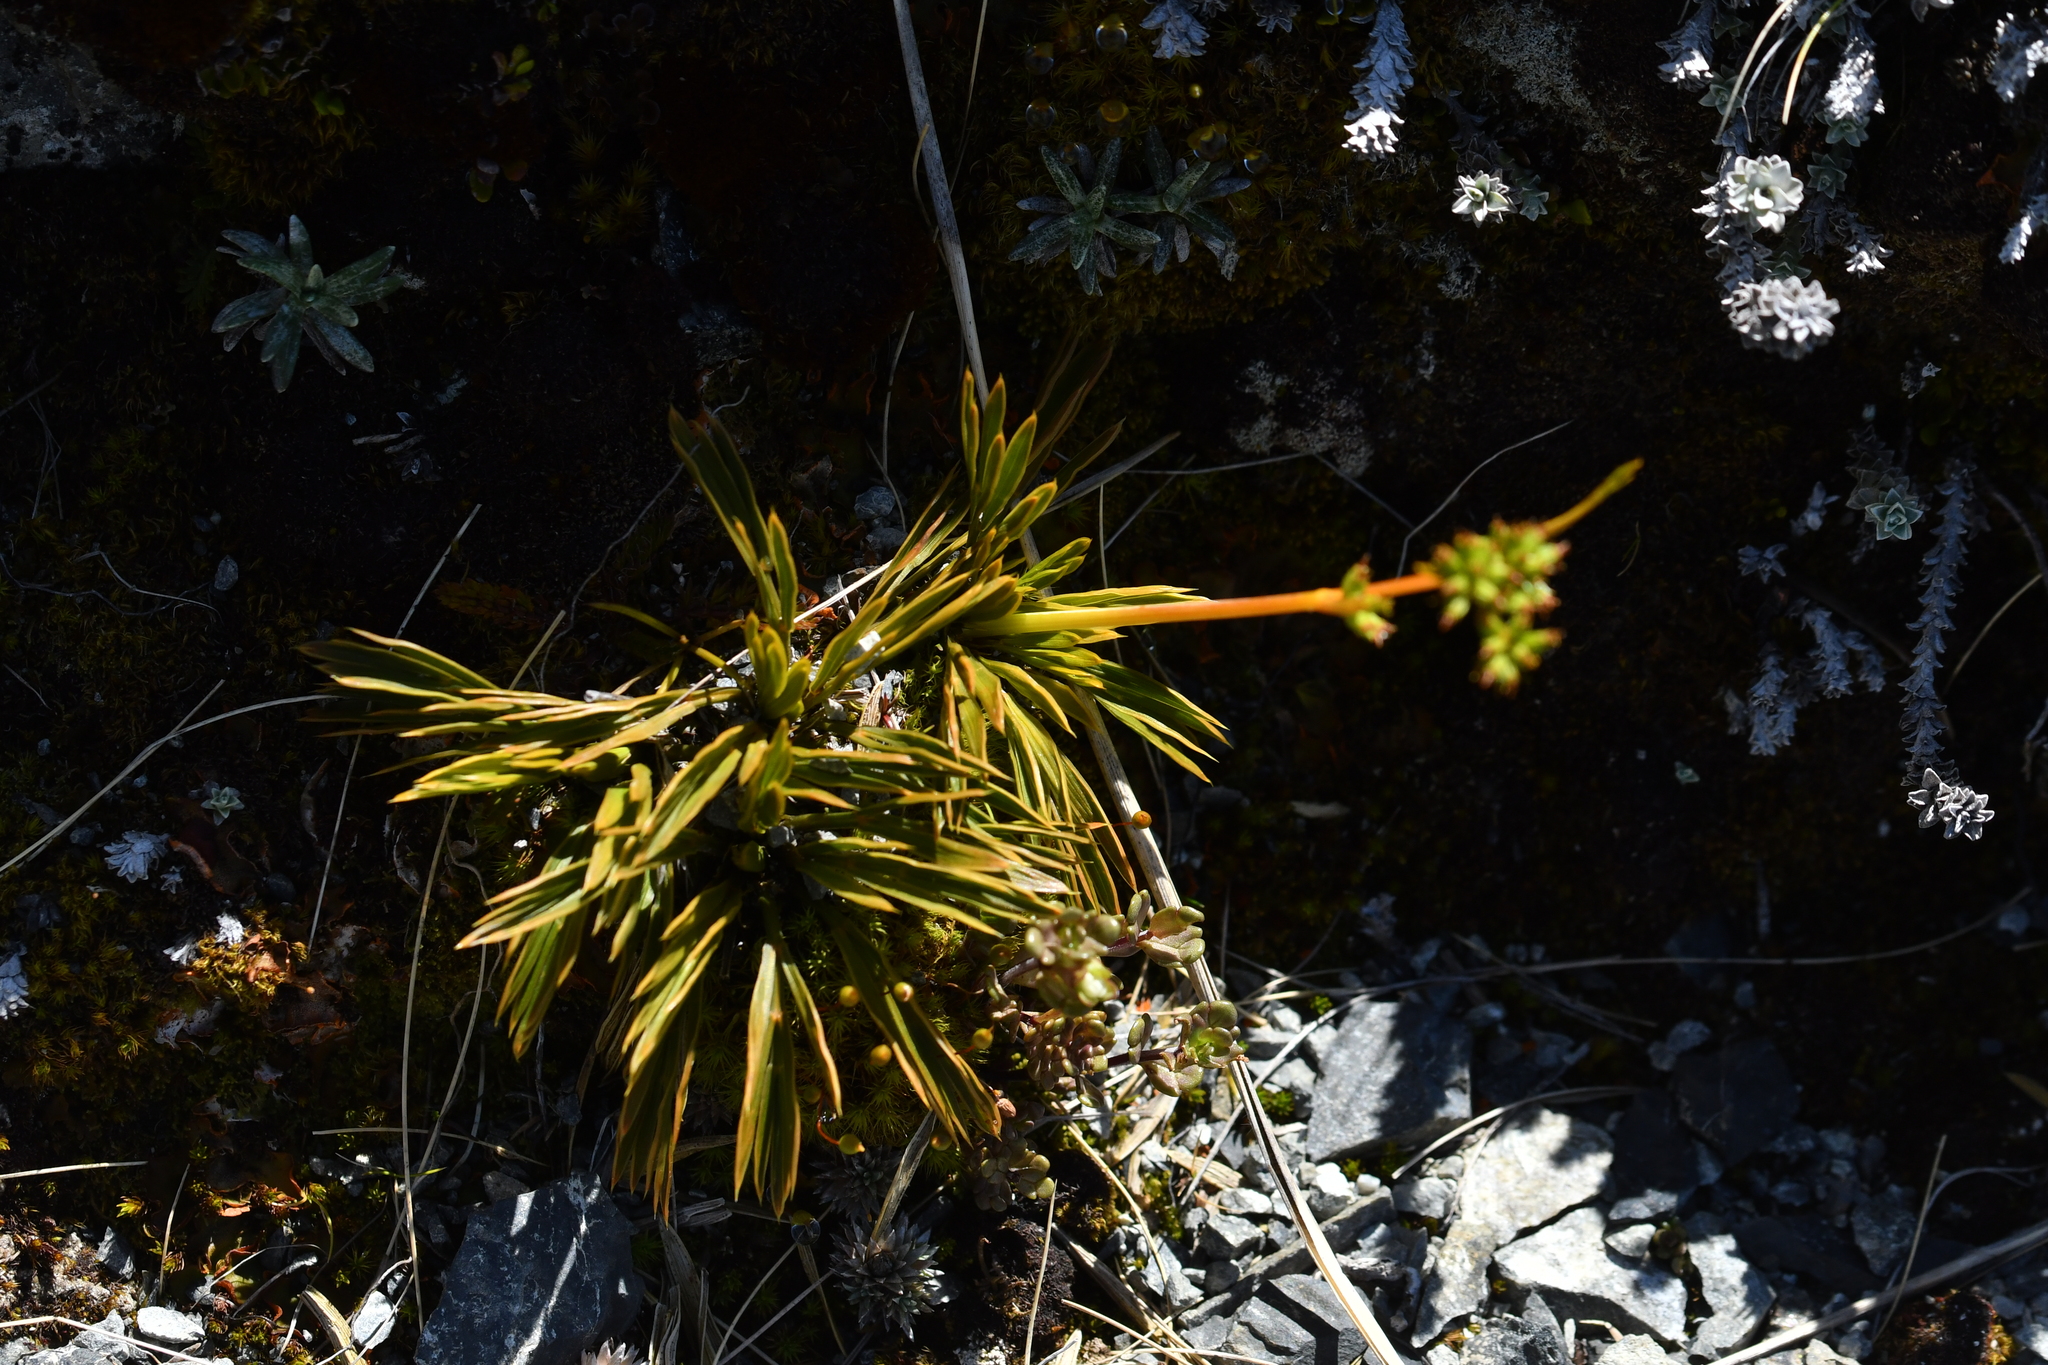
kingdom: Plantae
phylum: Tracheophyta
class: Magnoliopsida
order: Apiales
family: Apiaceae
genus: Aciphylla
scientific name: Aciphylla monroi
